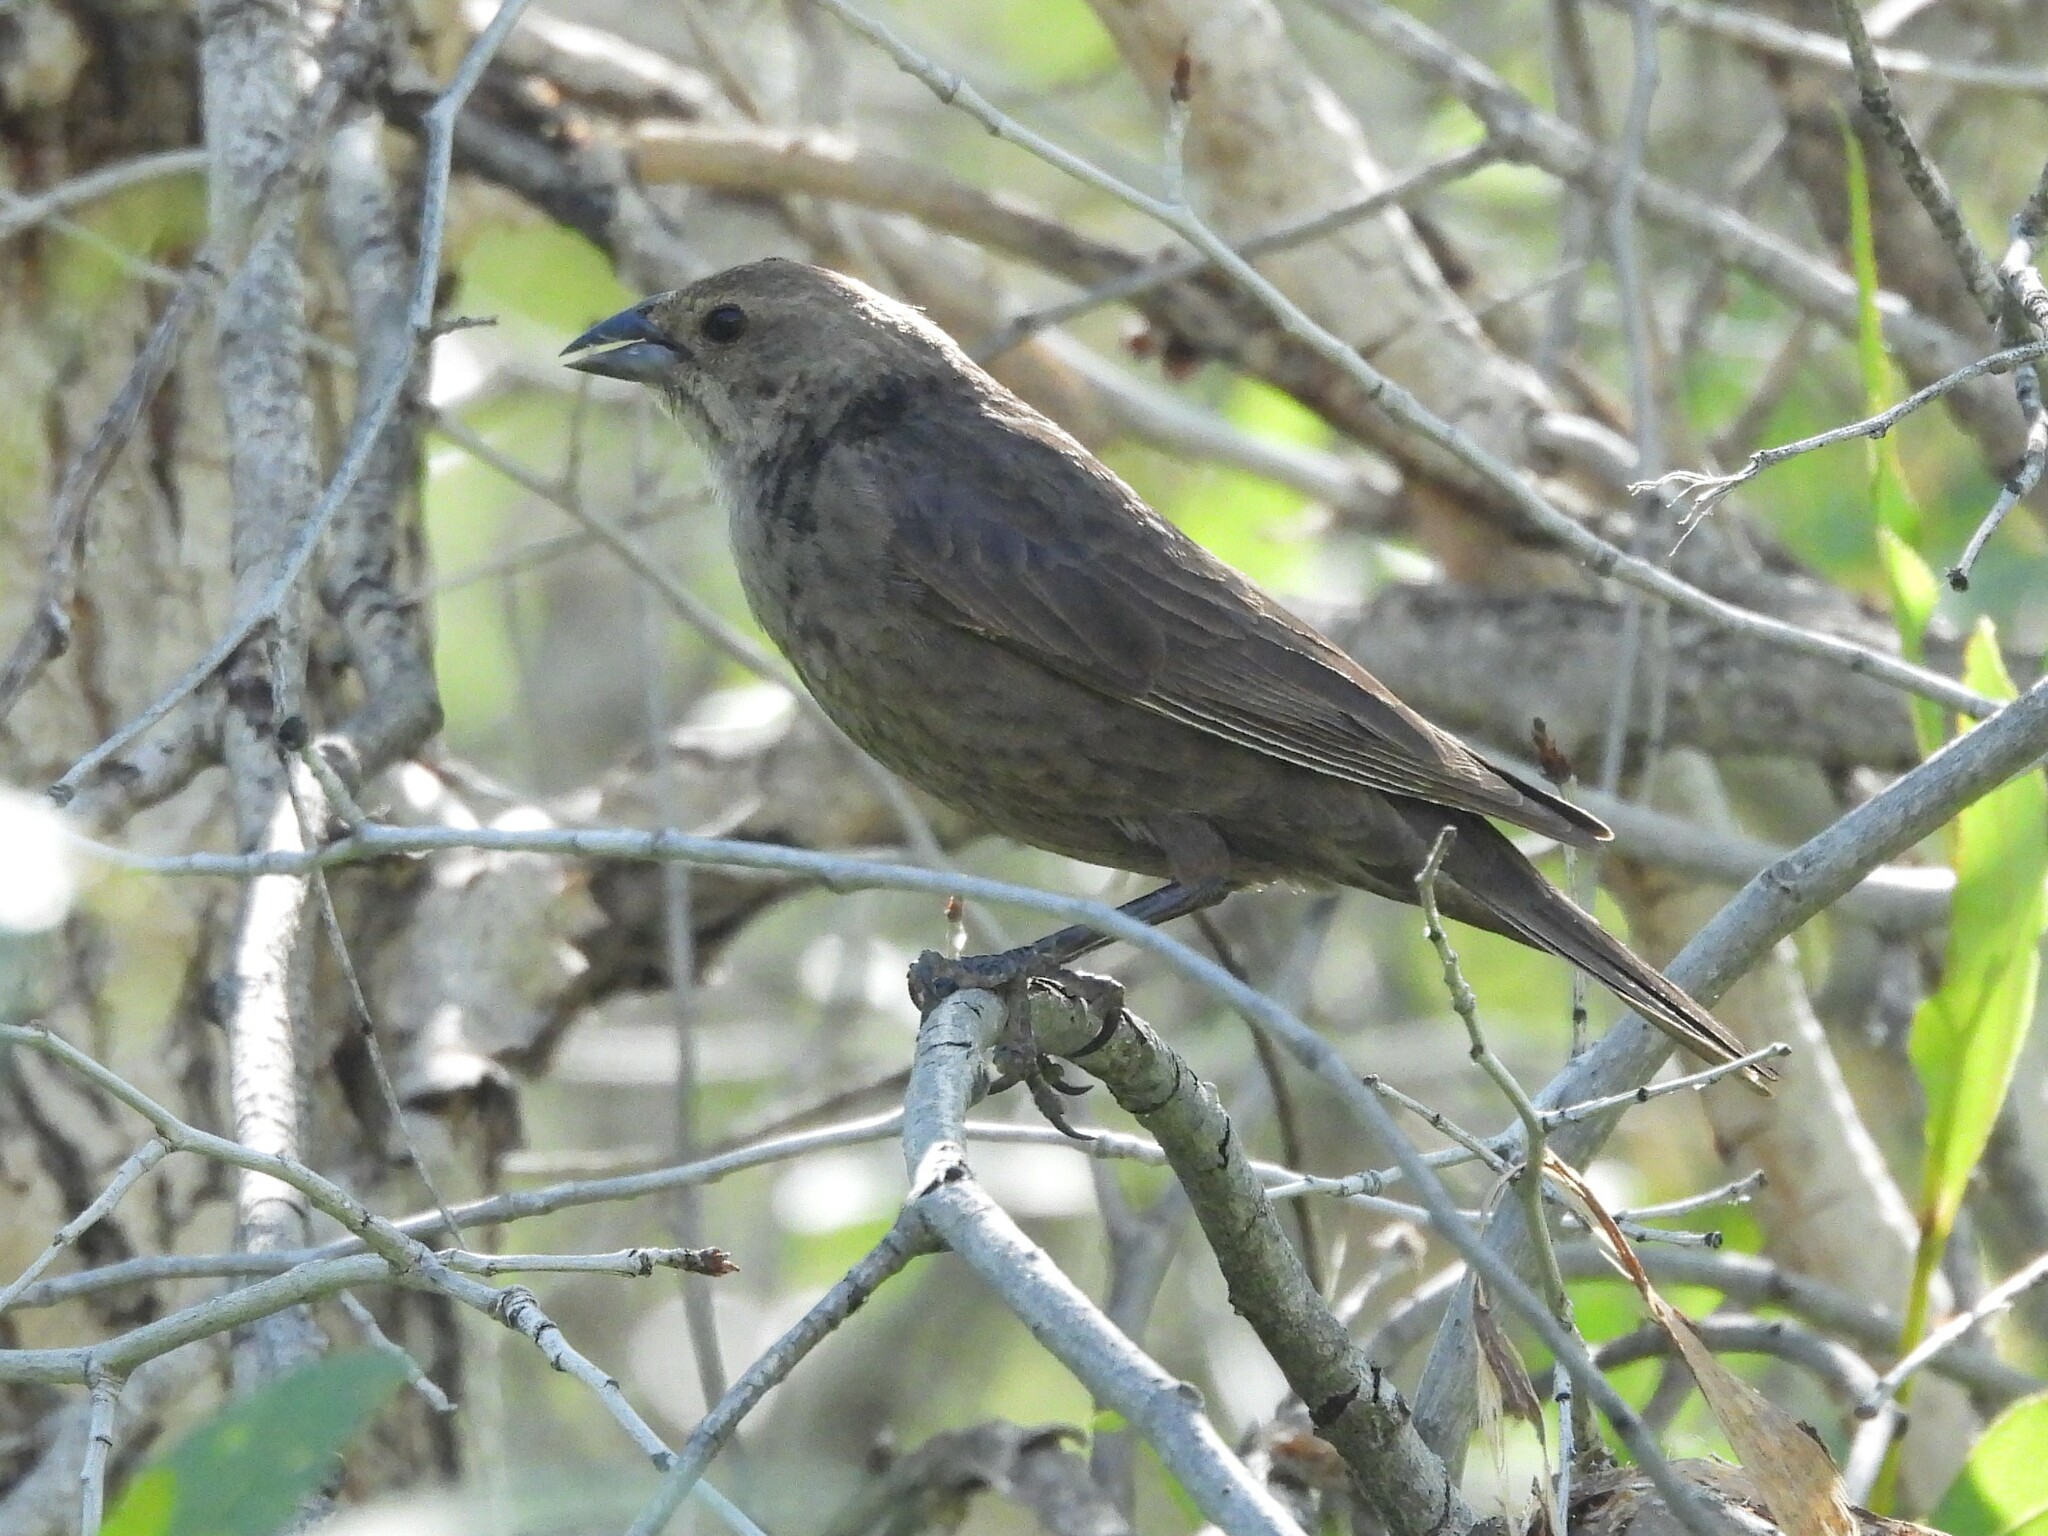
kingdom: Animalia
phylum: Chordata
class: Aves
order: Passeriformes
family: Icteridae
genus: Molothrus
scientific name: Molothrus ater
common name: Brown-headed cowbird
